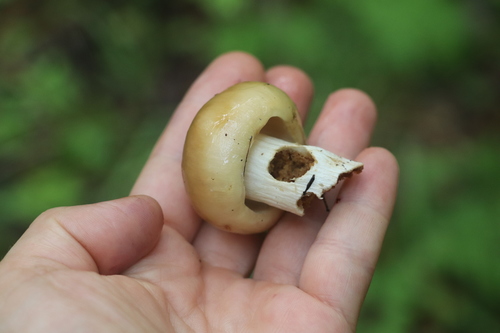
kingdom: Fungi
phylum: Basidiomycota
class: Agaricomycetes
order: Russulales
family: Russulaceae
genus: Russula
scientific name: Russula foetens
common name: Foetid russula
